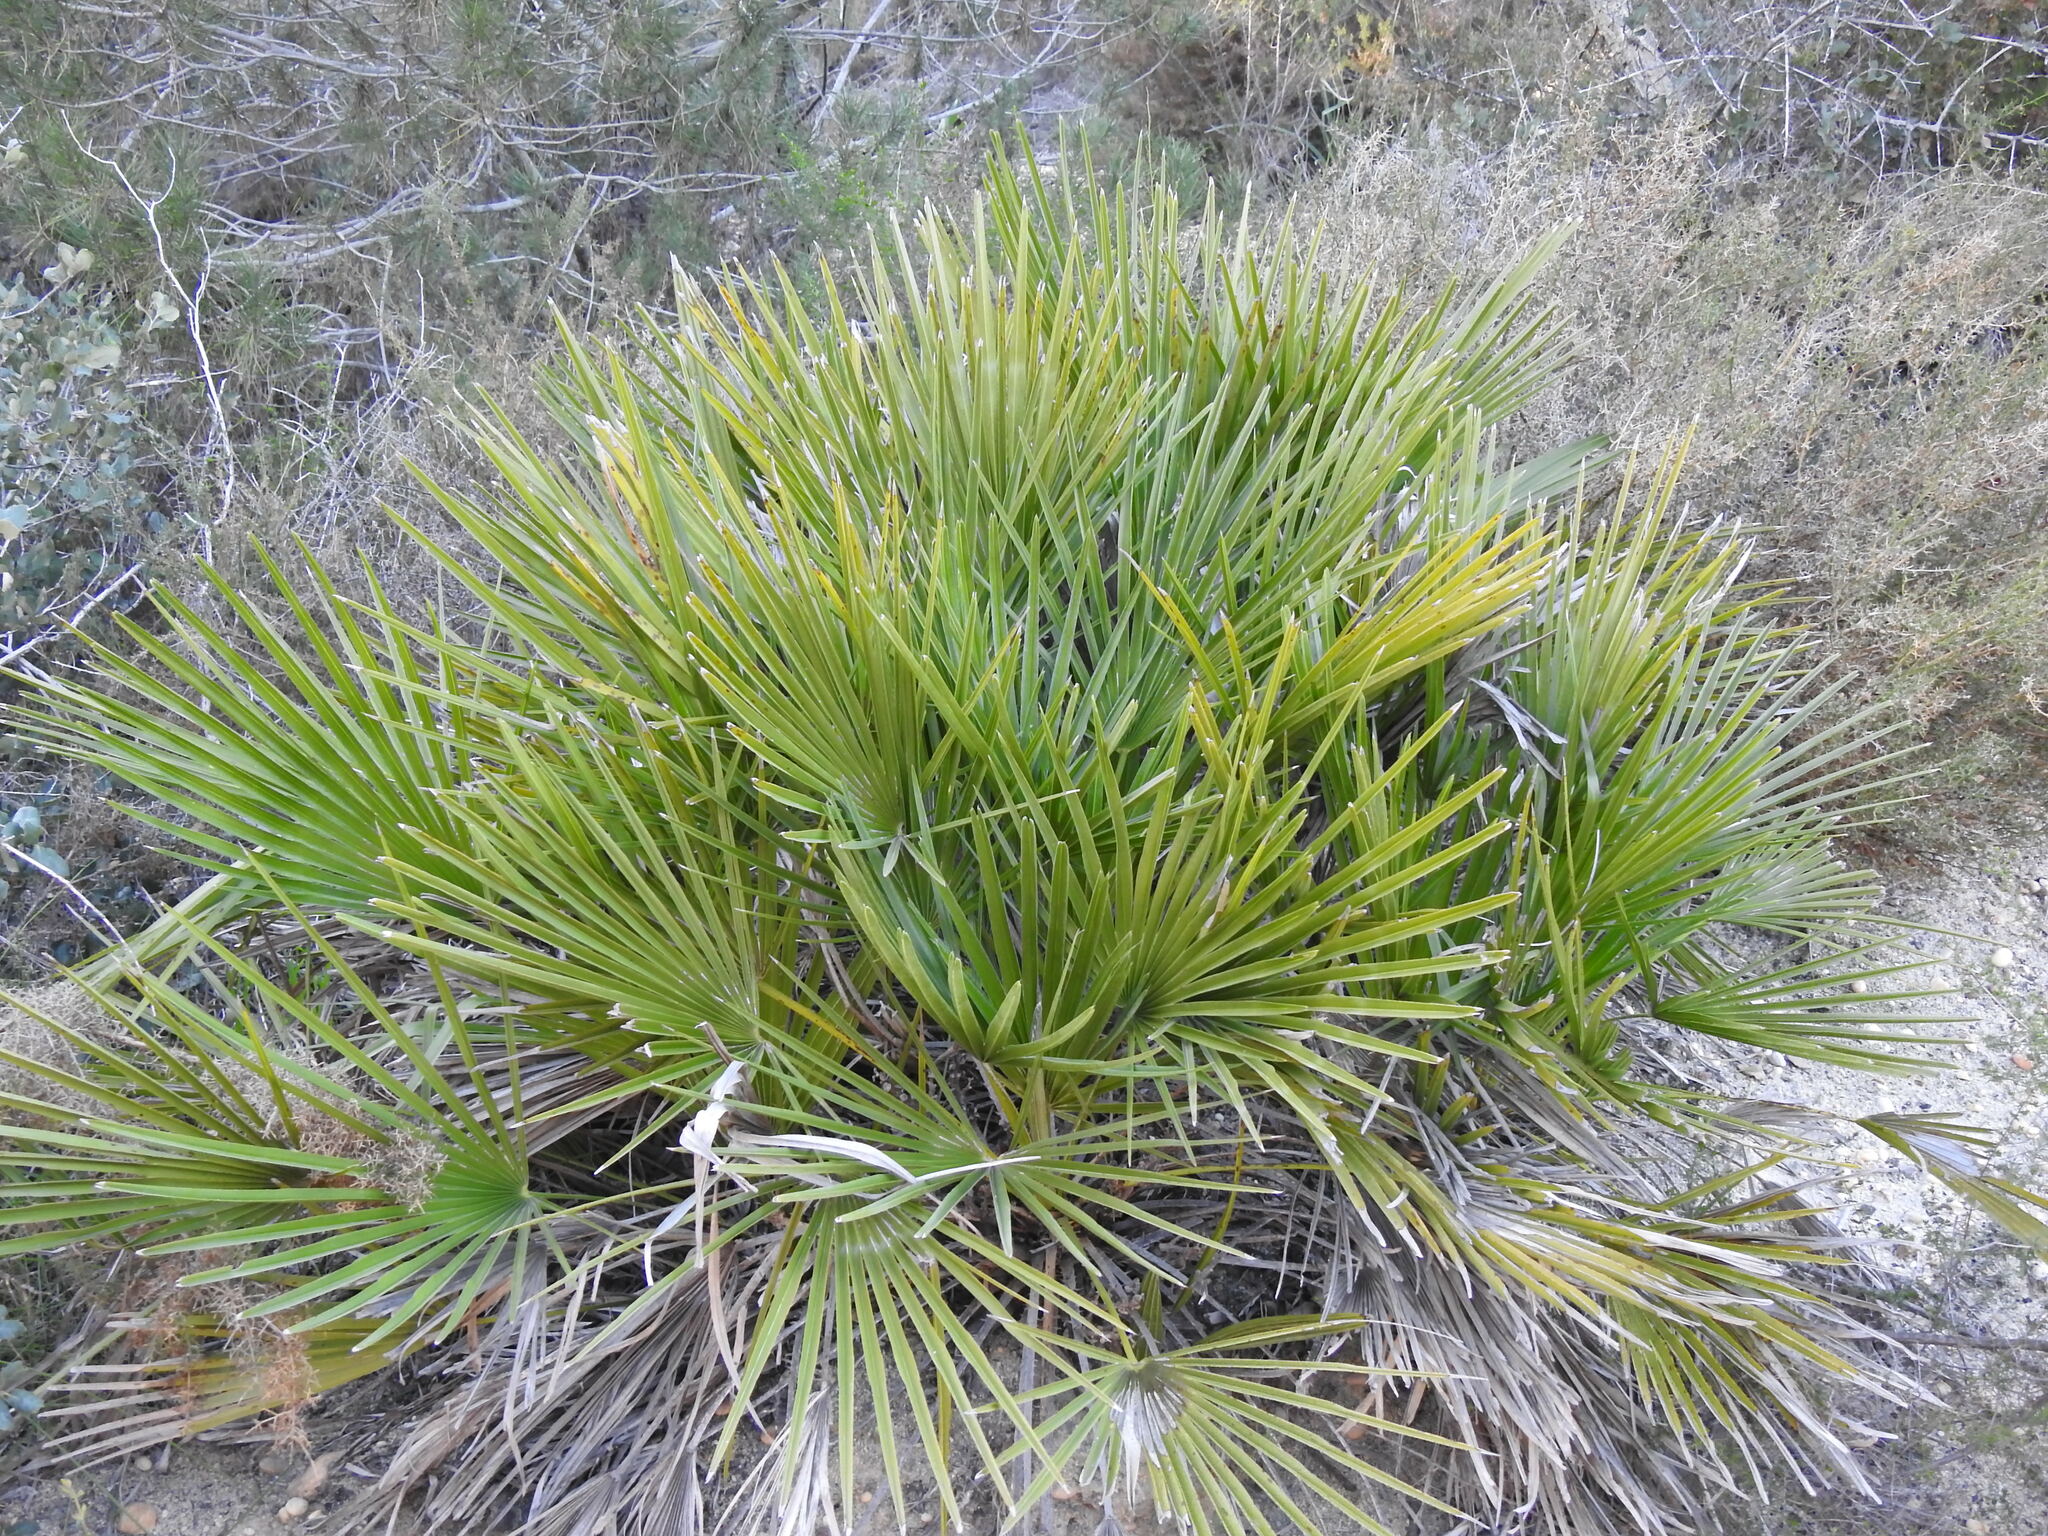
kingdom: Plantae
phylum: Tracheophyta
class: Liliopsida
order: Arecales
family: Arecaceae
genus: Chamaerops
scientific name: Chamaerops humilis
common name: Dwarf fan palm
